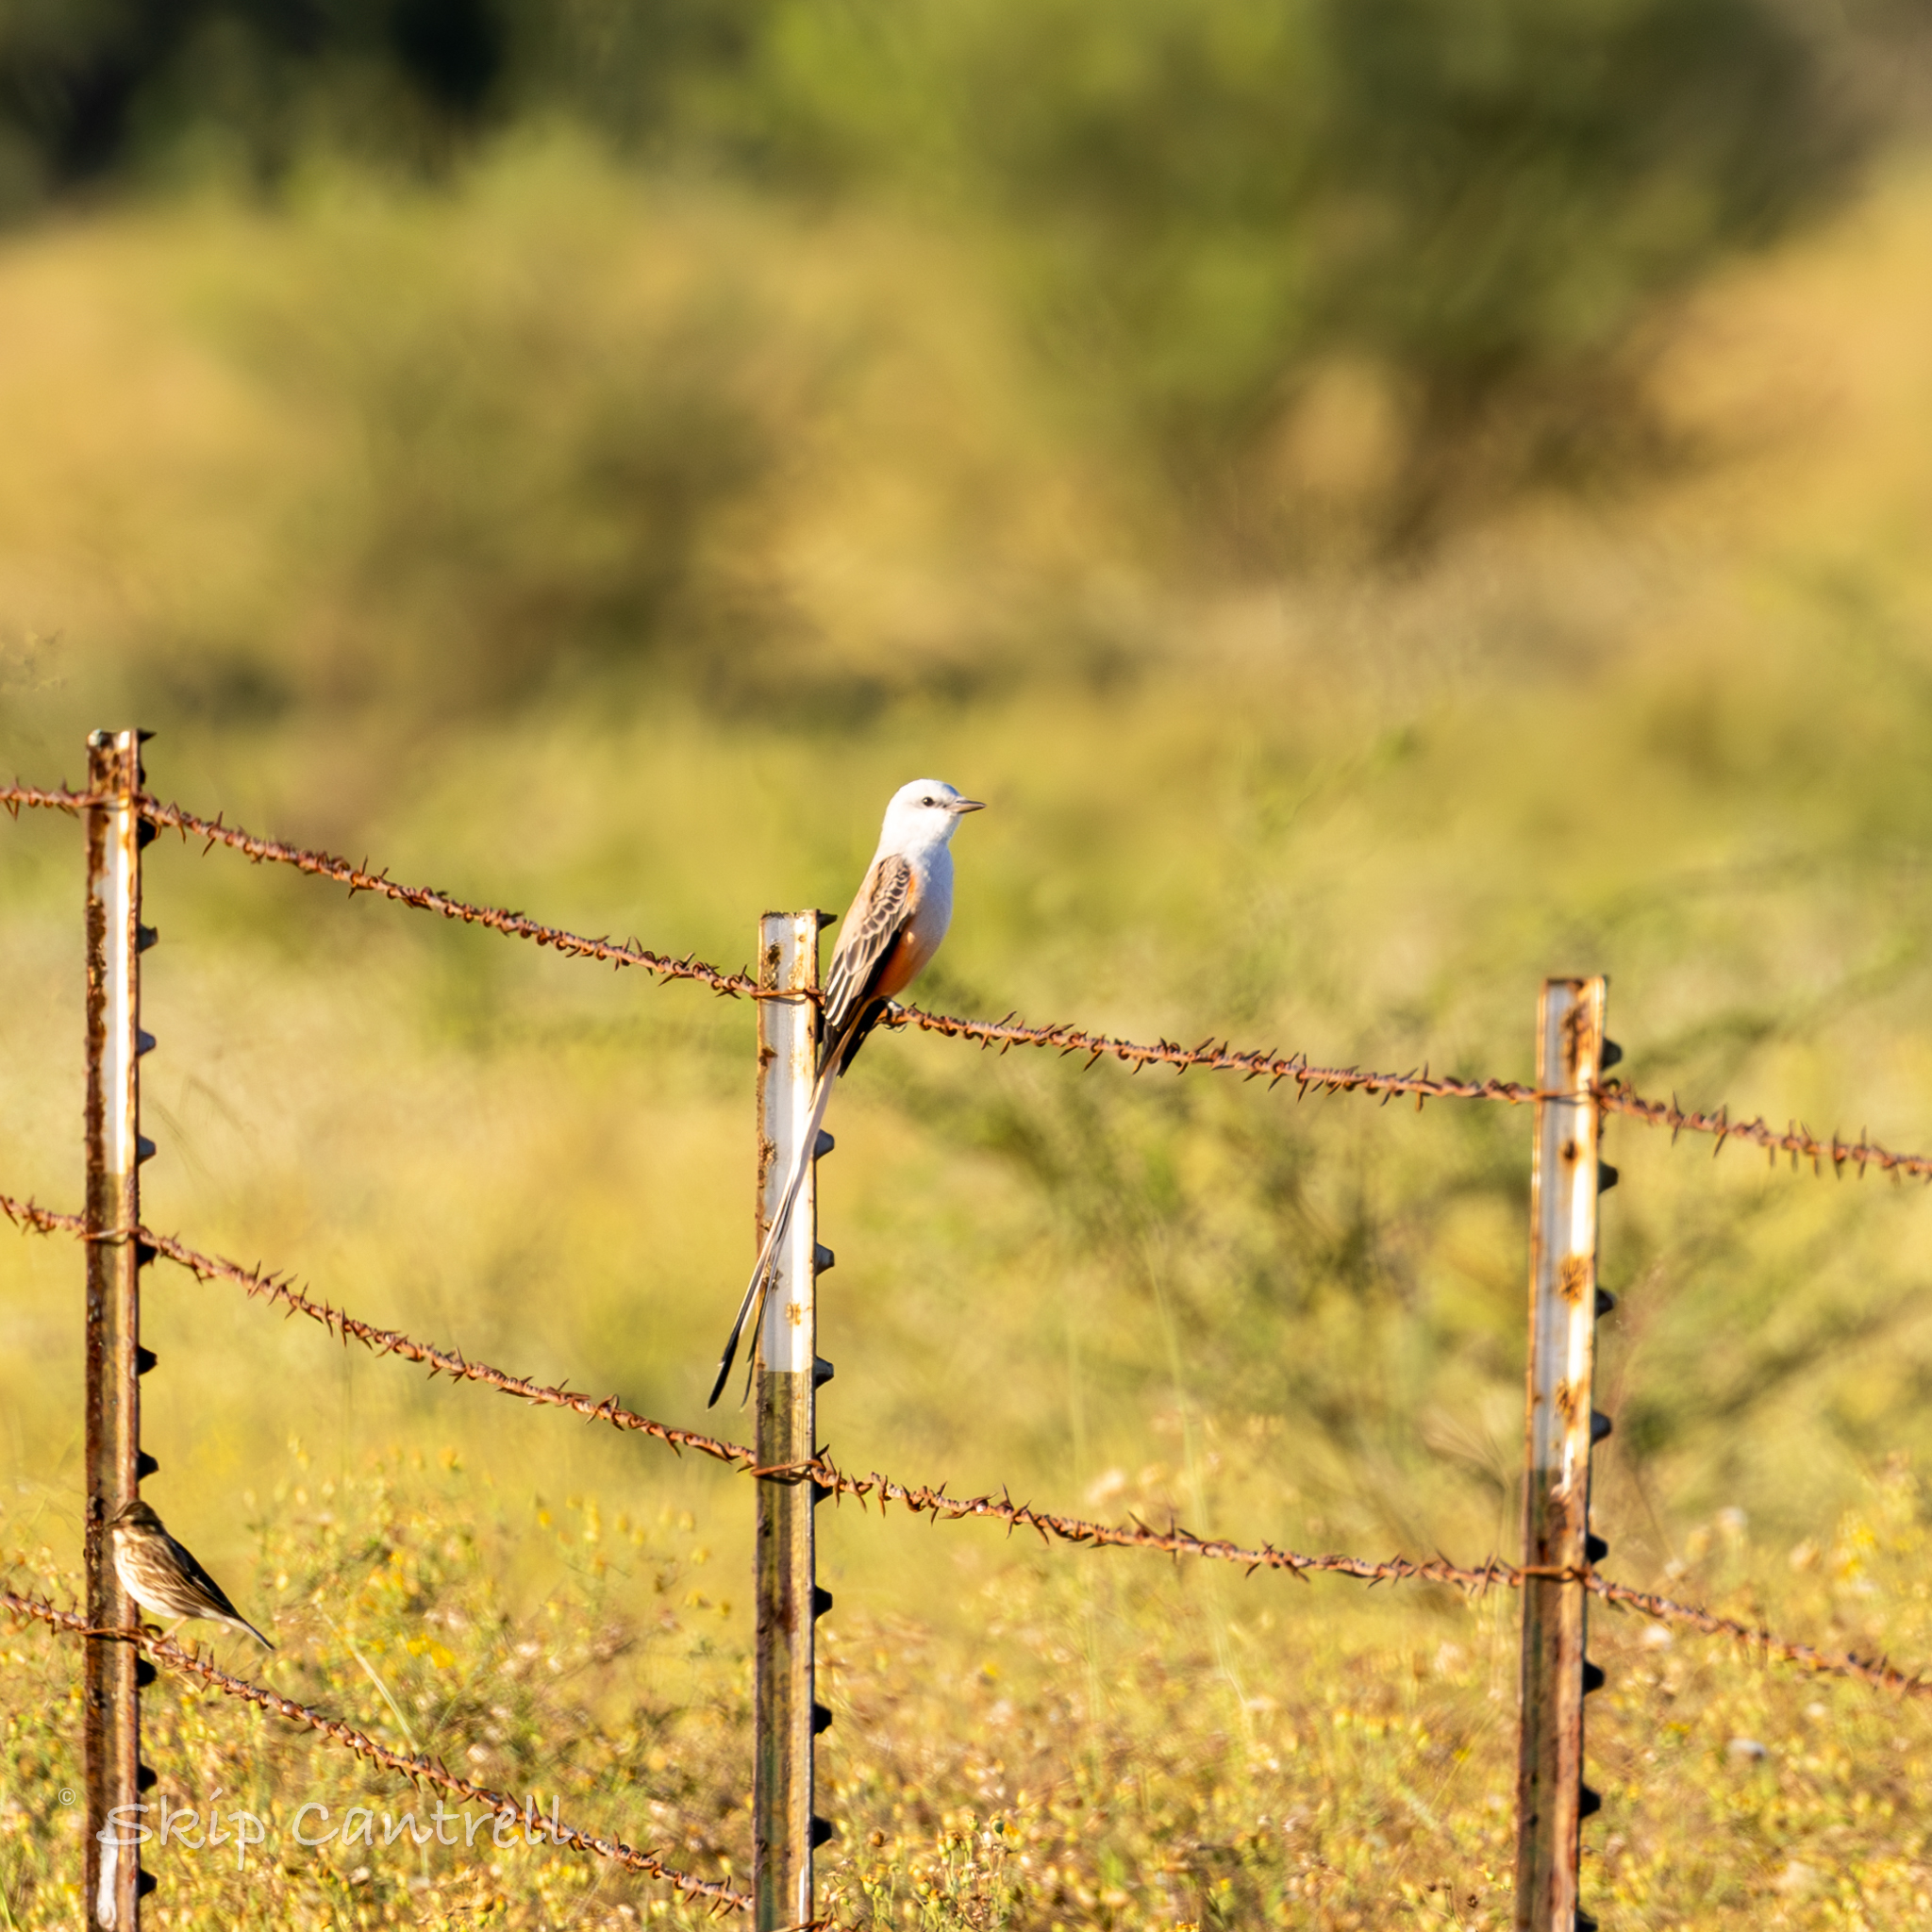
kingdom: Animalia
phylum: Chordata
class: Aves
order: Passeriformes
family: Tyrannidae
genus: Tyrannus
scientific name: Tyrannus forficatus
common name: Scissor-tailed flycatcher
